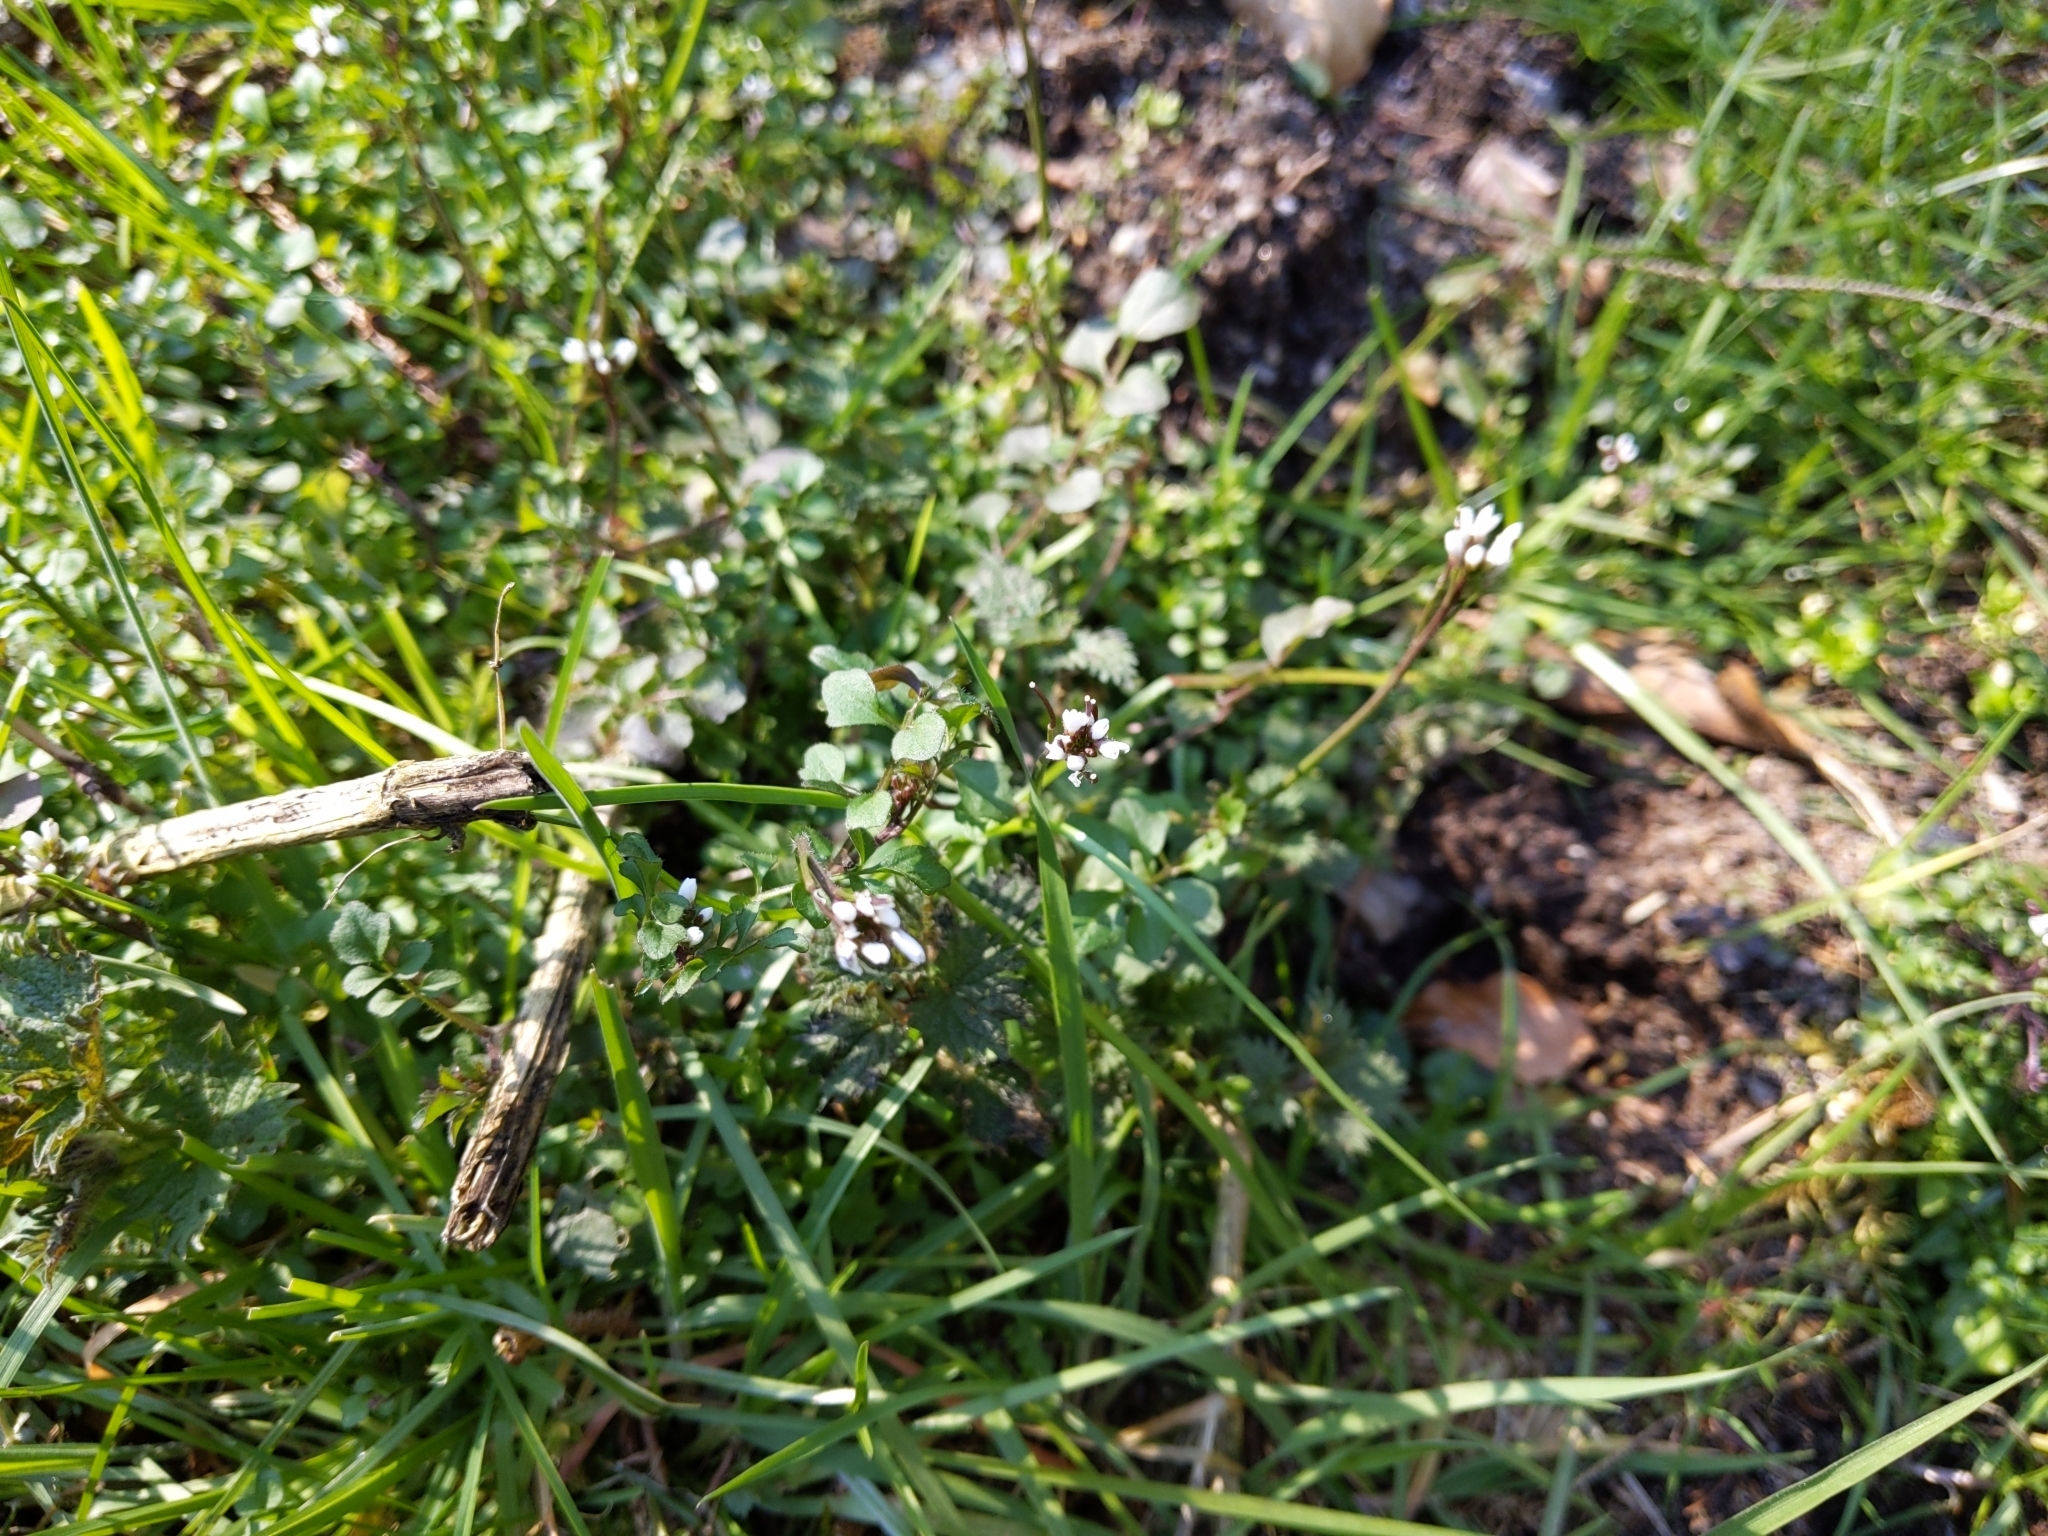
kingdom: Plantae
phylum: Tracheophyta
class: Magnoliopsida
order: Brassicales
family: Brassicaceae
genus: Cardamine
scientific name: Cardamine hirsuta
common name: Hairy bittercress
